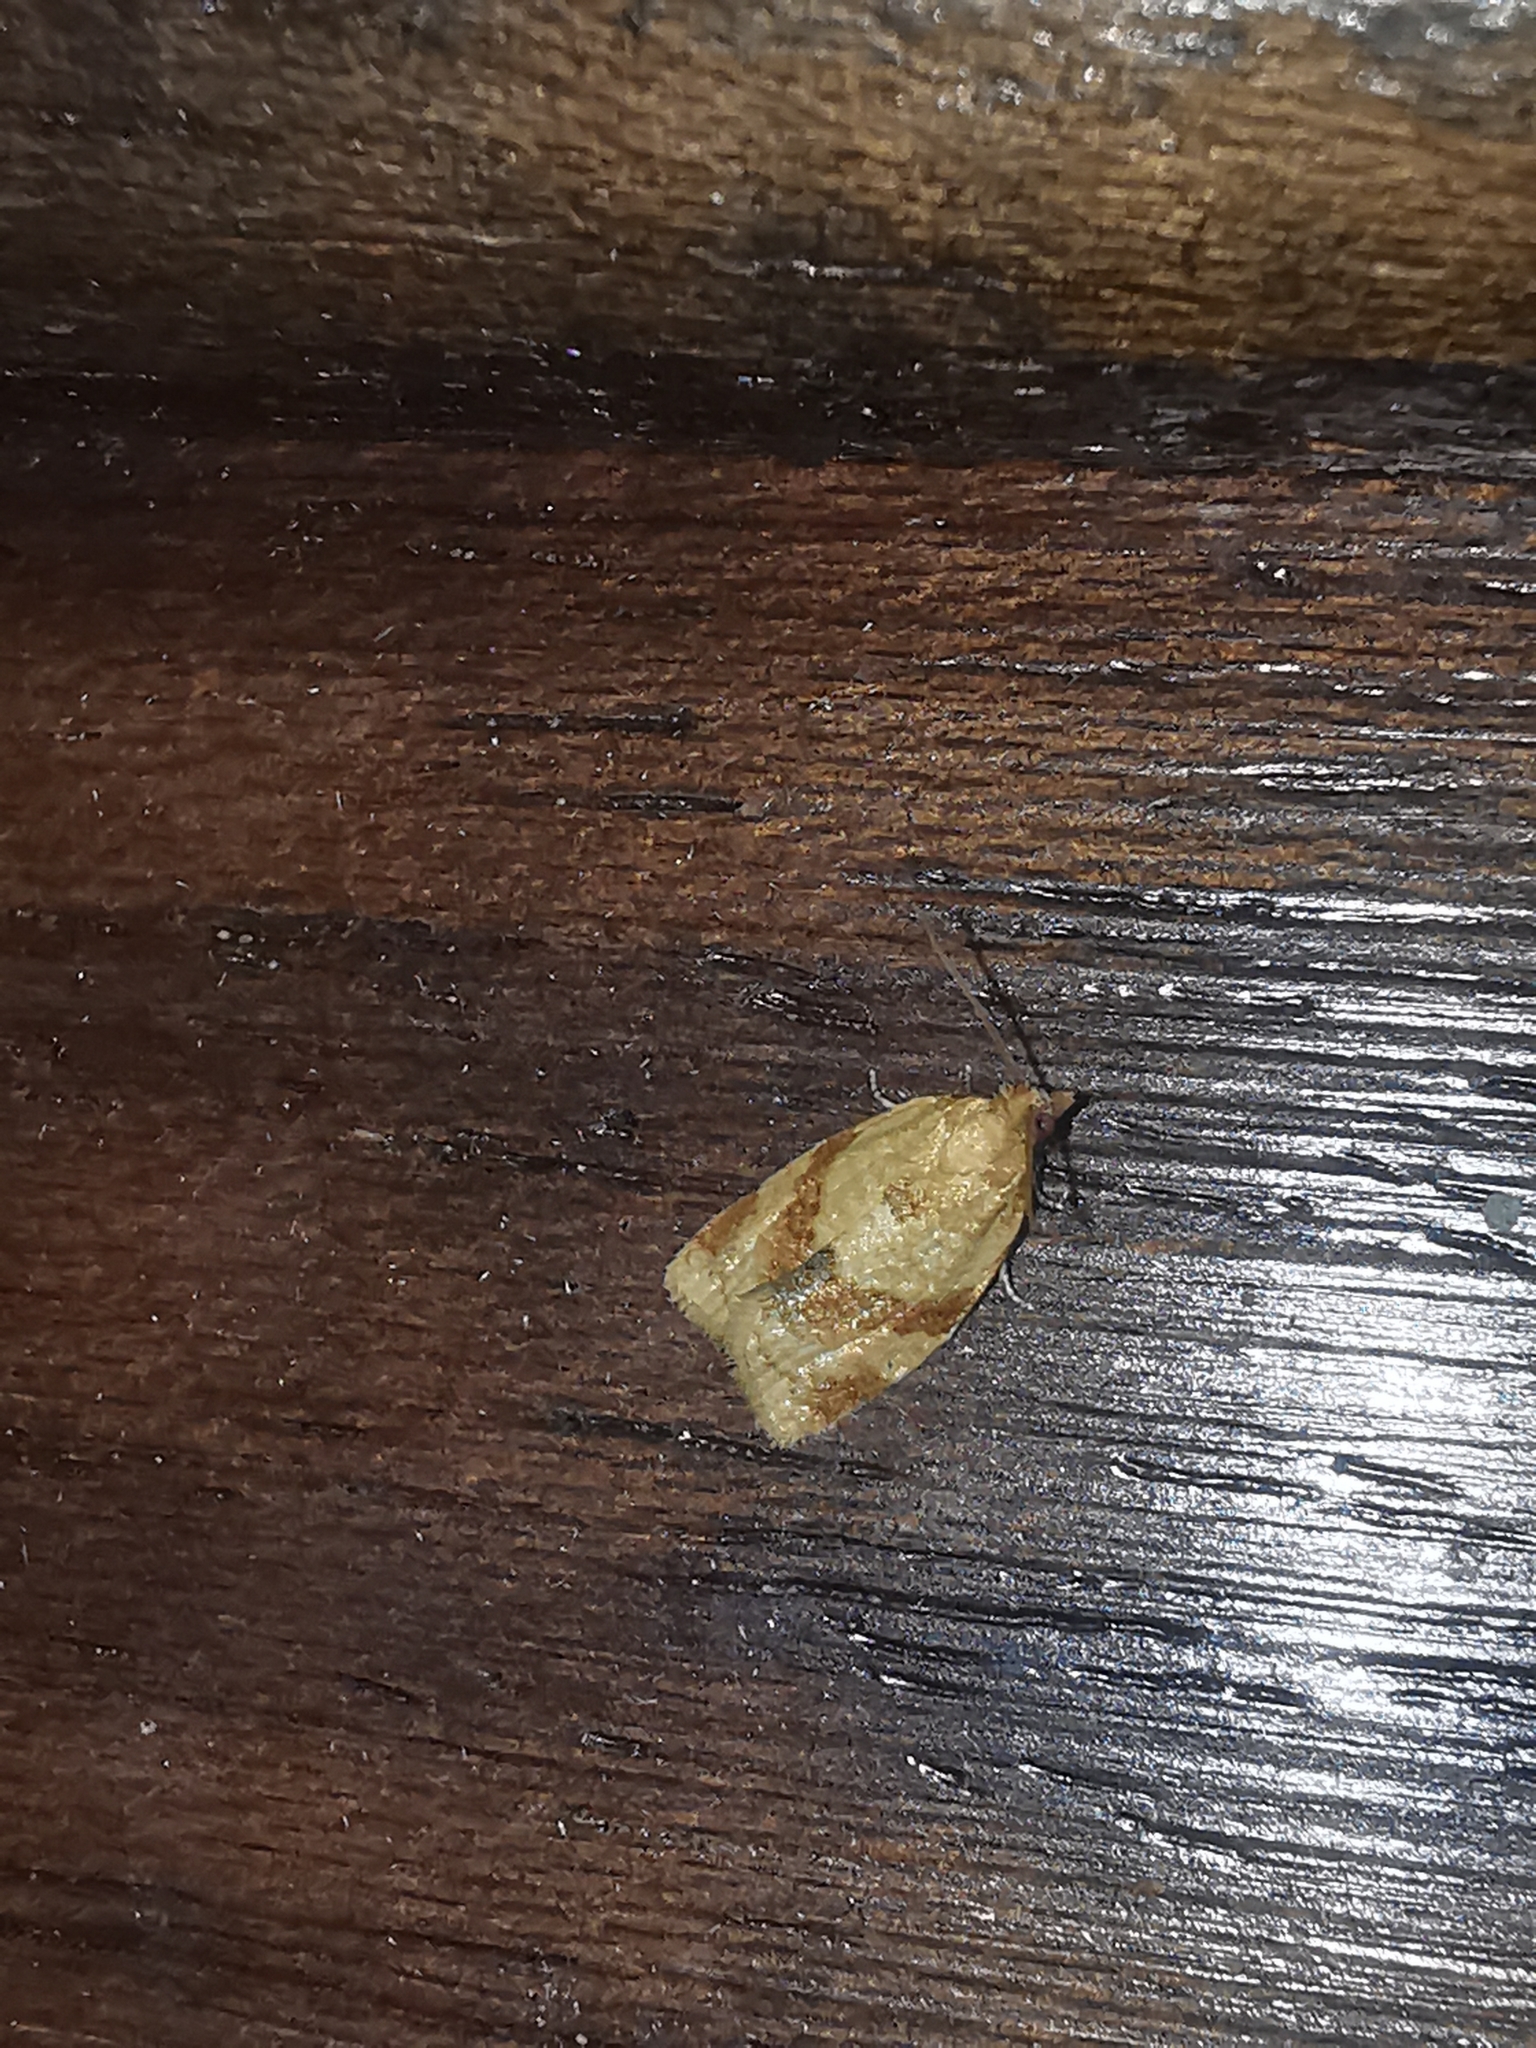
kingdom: Animalia
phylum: Arthropoda
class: Insecta
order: Lepidoptera
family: Tortricidae
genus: Clepsis
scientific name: Clepsis consimilana
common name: Privet tortrix
